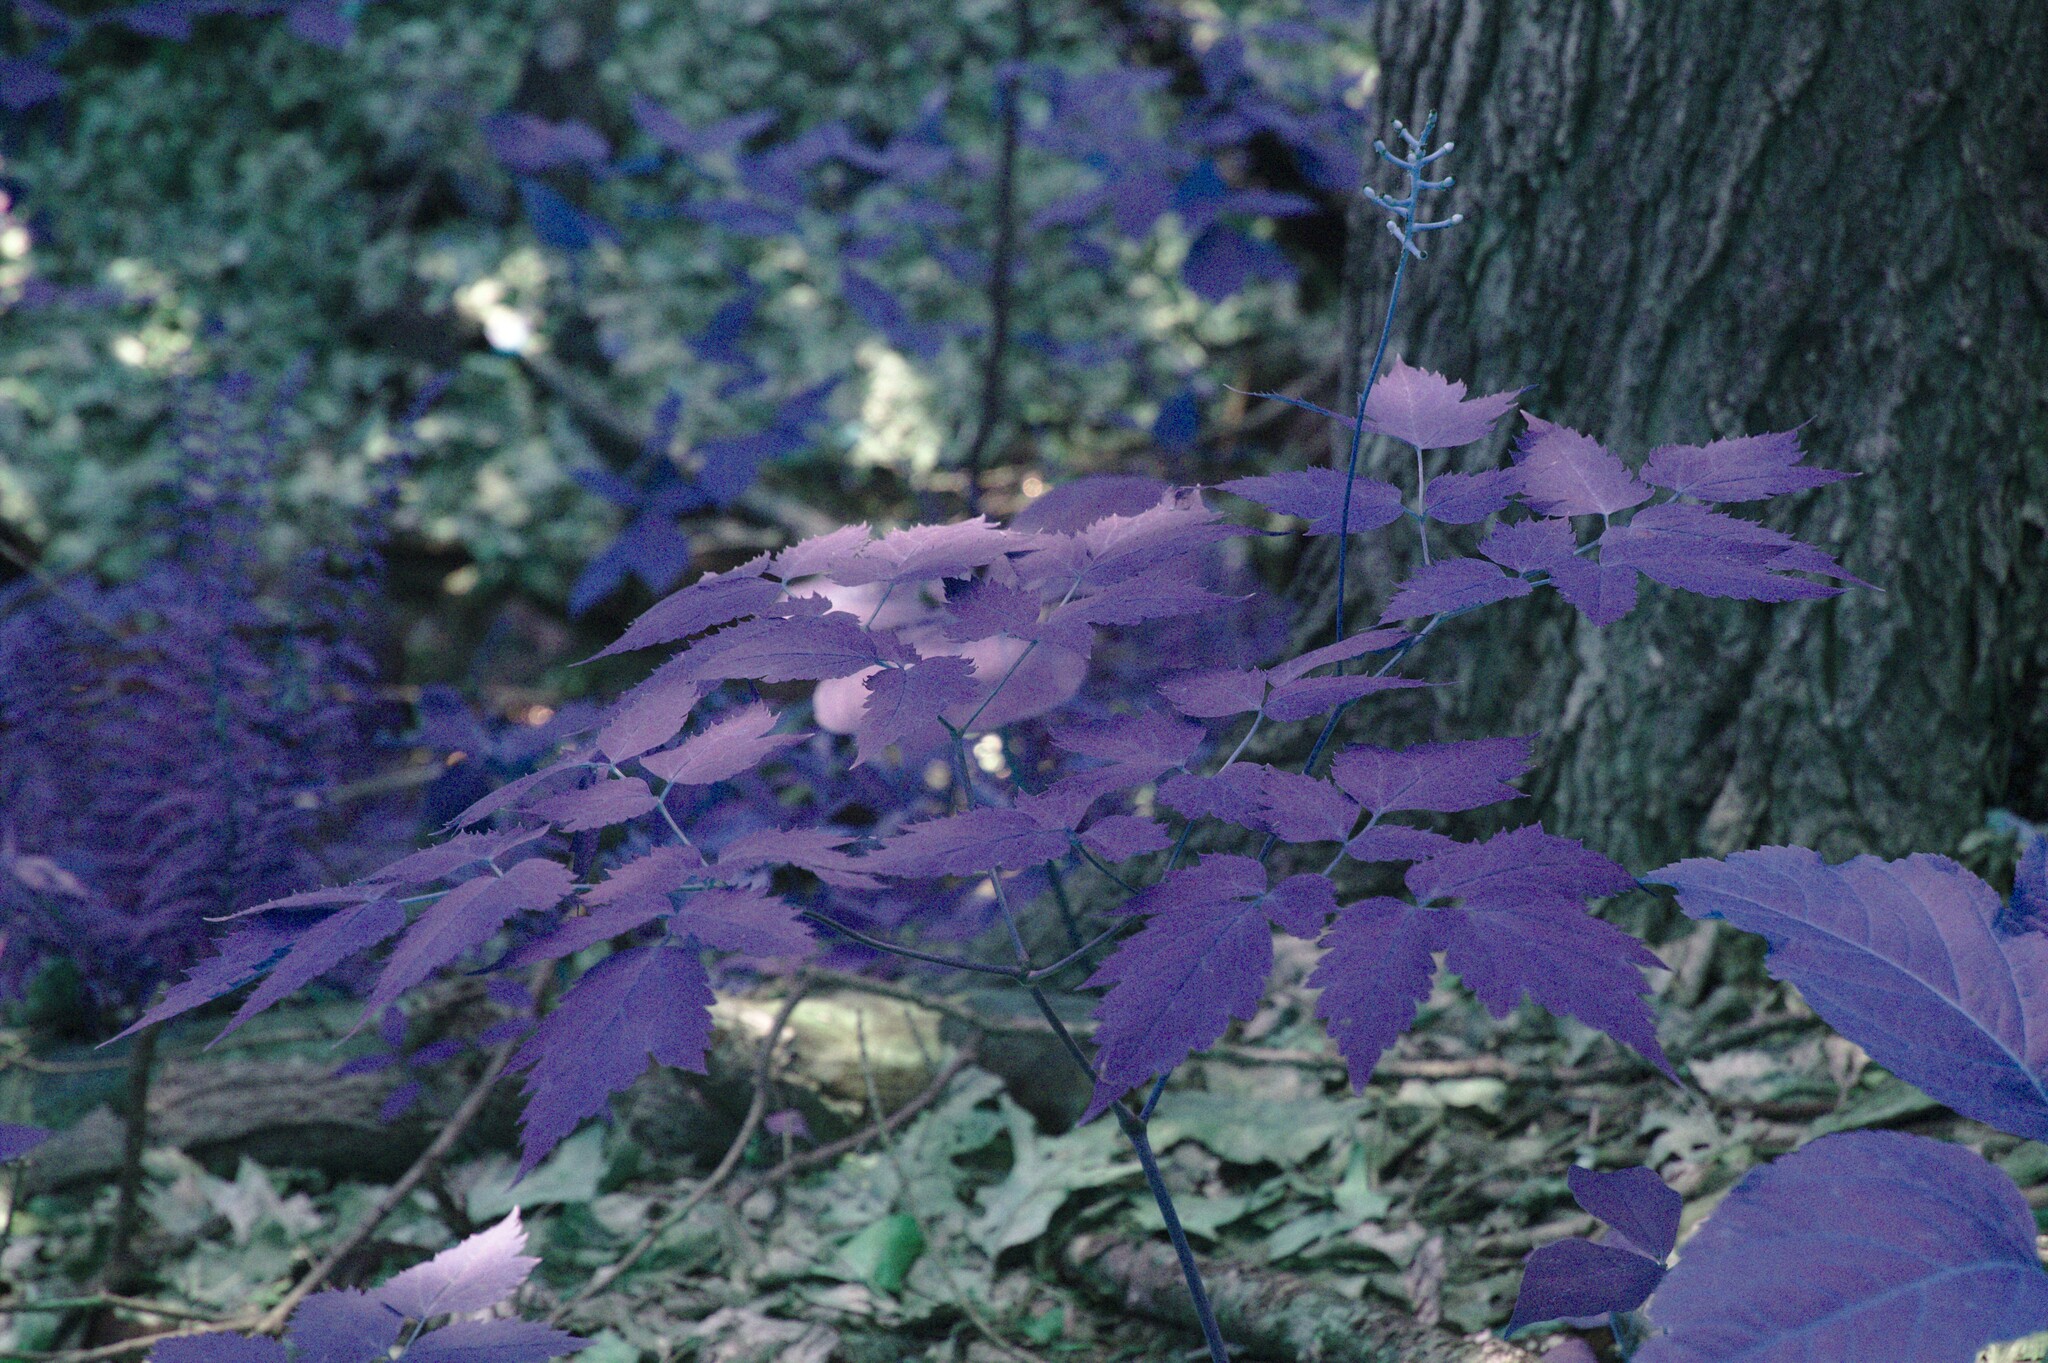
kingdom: Plantae
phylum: Tracheophyta
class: Magnoliopsida
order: Ranunculales
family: Ranunculaceae
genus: Actaea
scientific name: Actaea pachypoda
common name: Doll's-eyes
